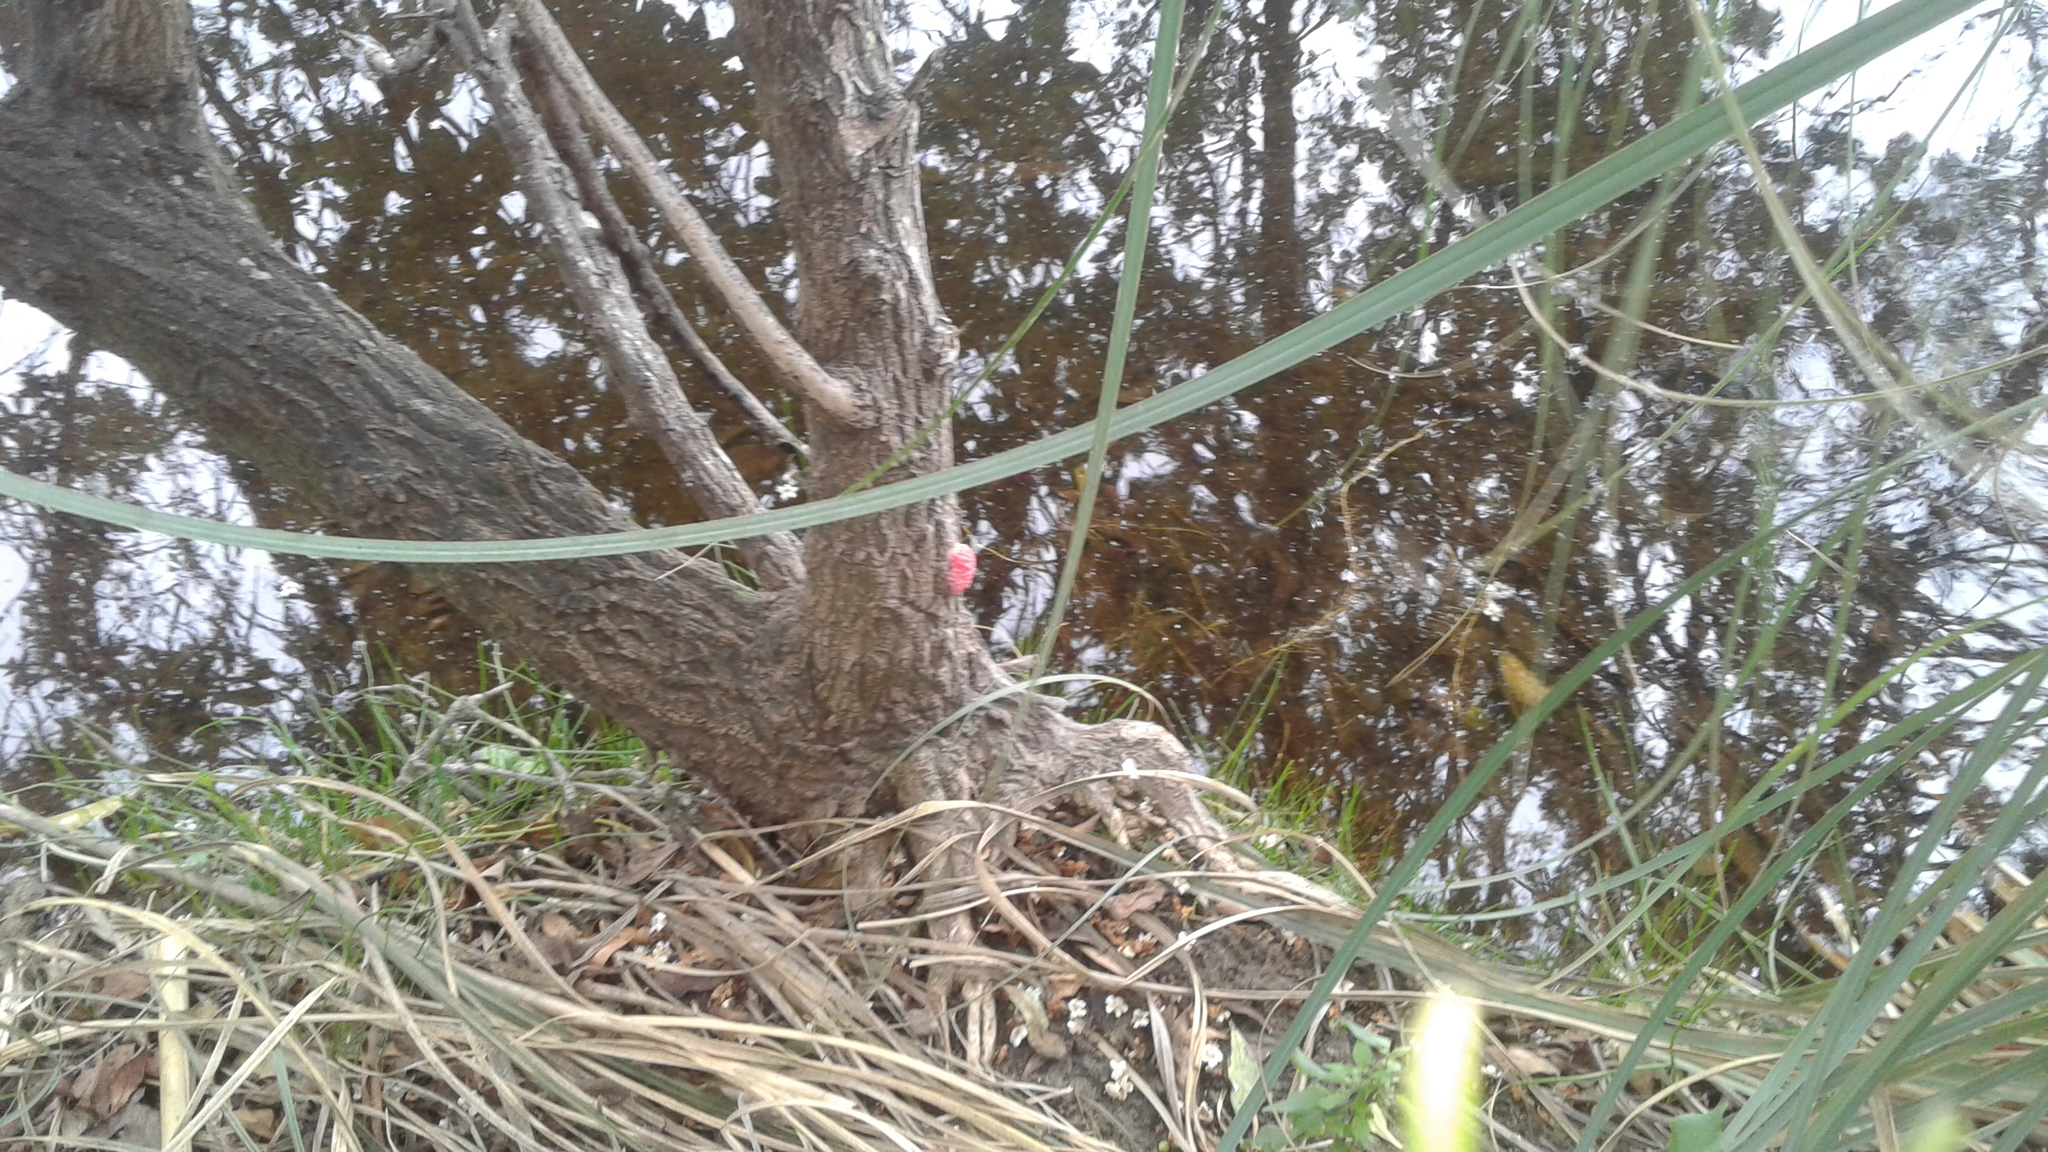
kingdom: Animalia
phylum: Mollusca
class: Gastropoda
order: Architaenioglossa
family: Ampullariidae
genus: Pomacea
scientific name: Pomacea canaliculata
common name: Channeled applesnail
